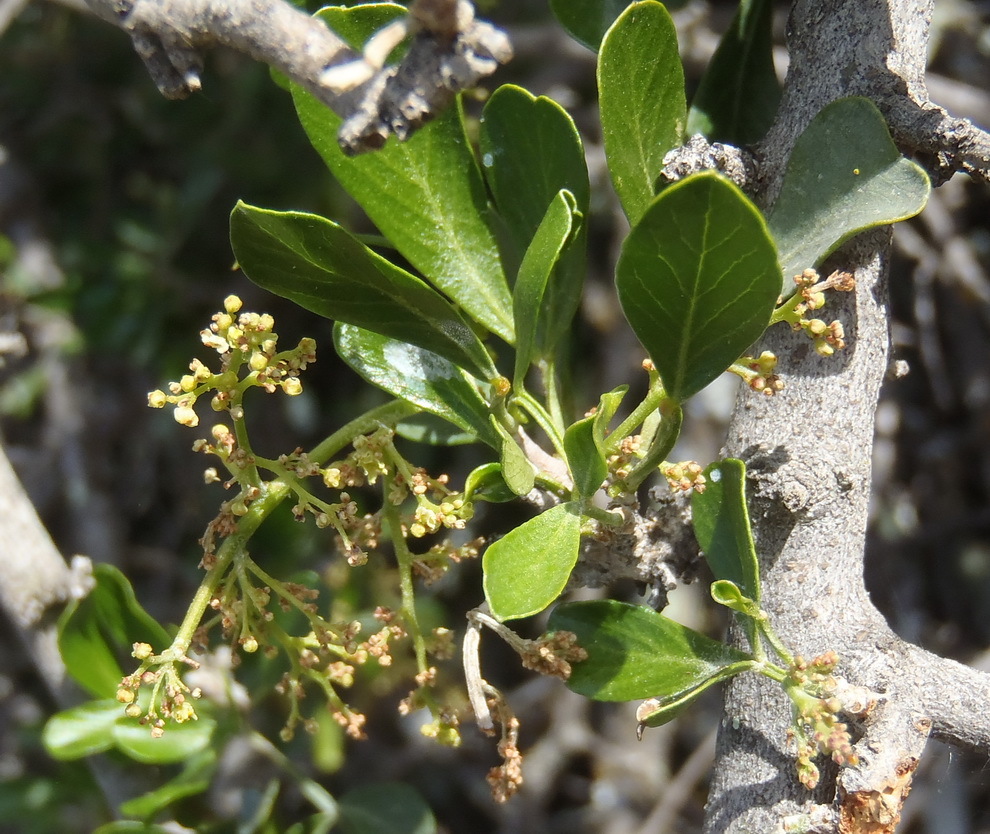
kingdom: Plantae
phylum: Tracheophyta
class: Magnoliopsida
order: Sapindales
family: Anacardiaceae
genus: Searsia
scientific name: Searsia longispina
